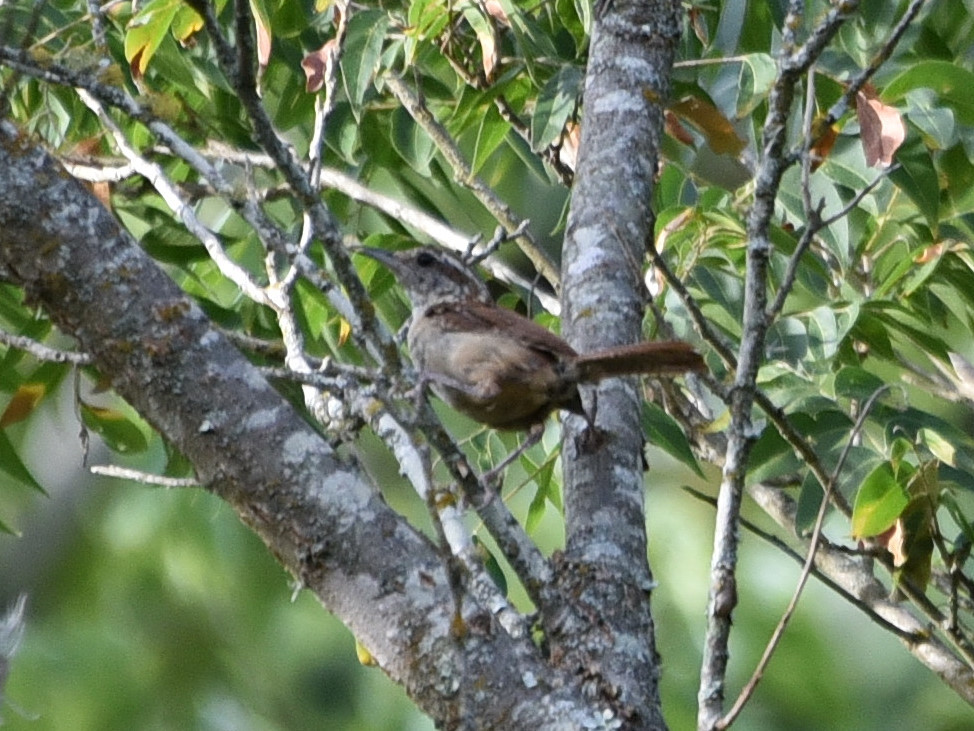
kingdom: Animalia
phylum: Chordata
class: Aves
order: Passeriformes
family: Troglodytidae
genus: Thryothorus
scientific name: Thryothorus ludovicianus
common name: Carolina wren
